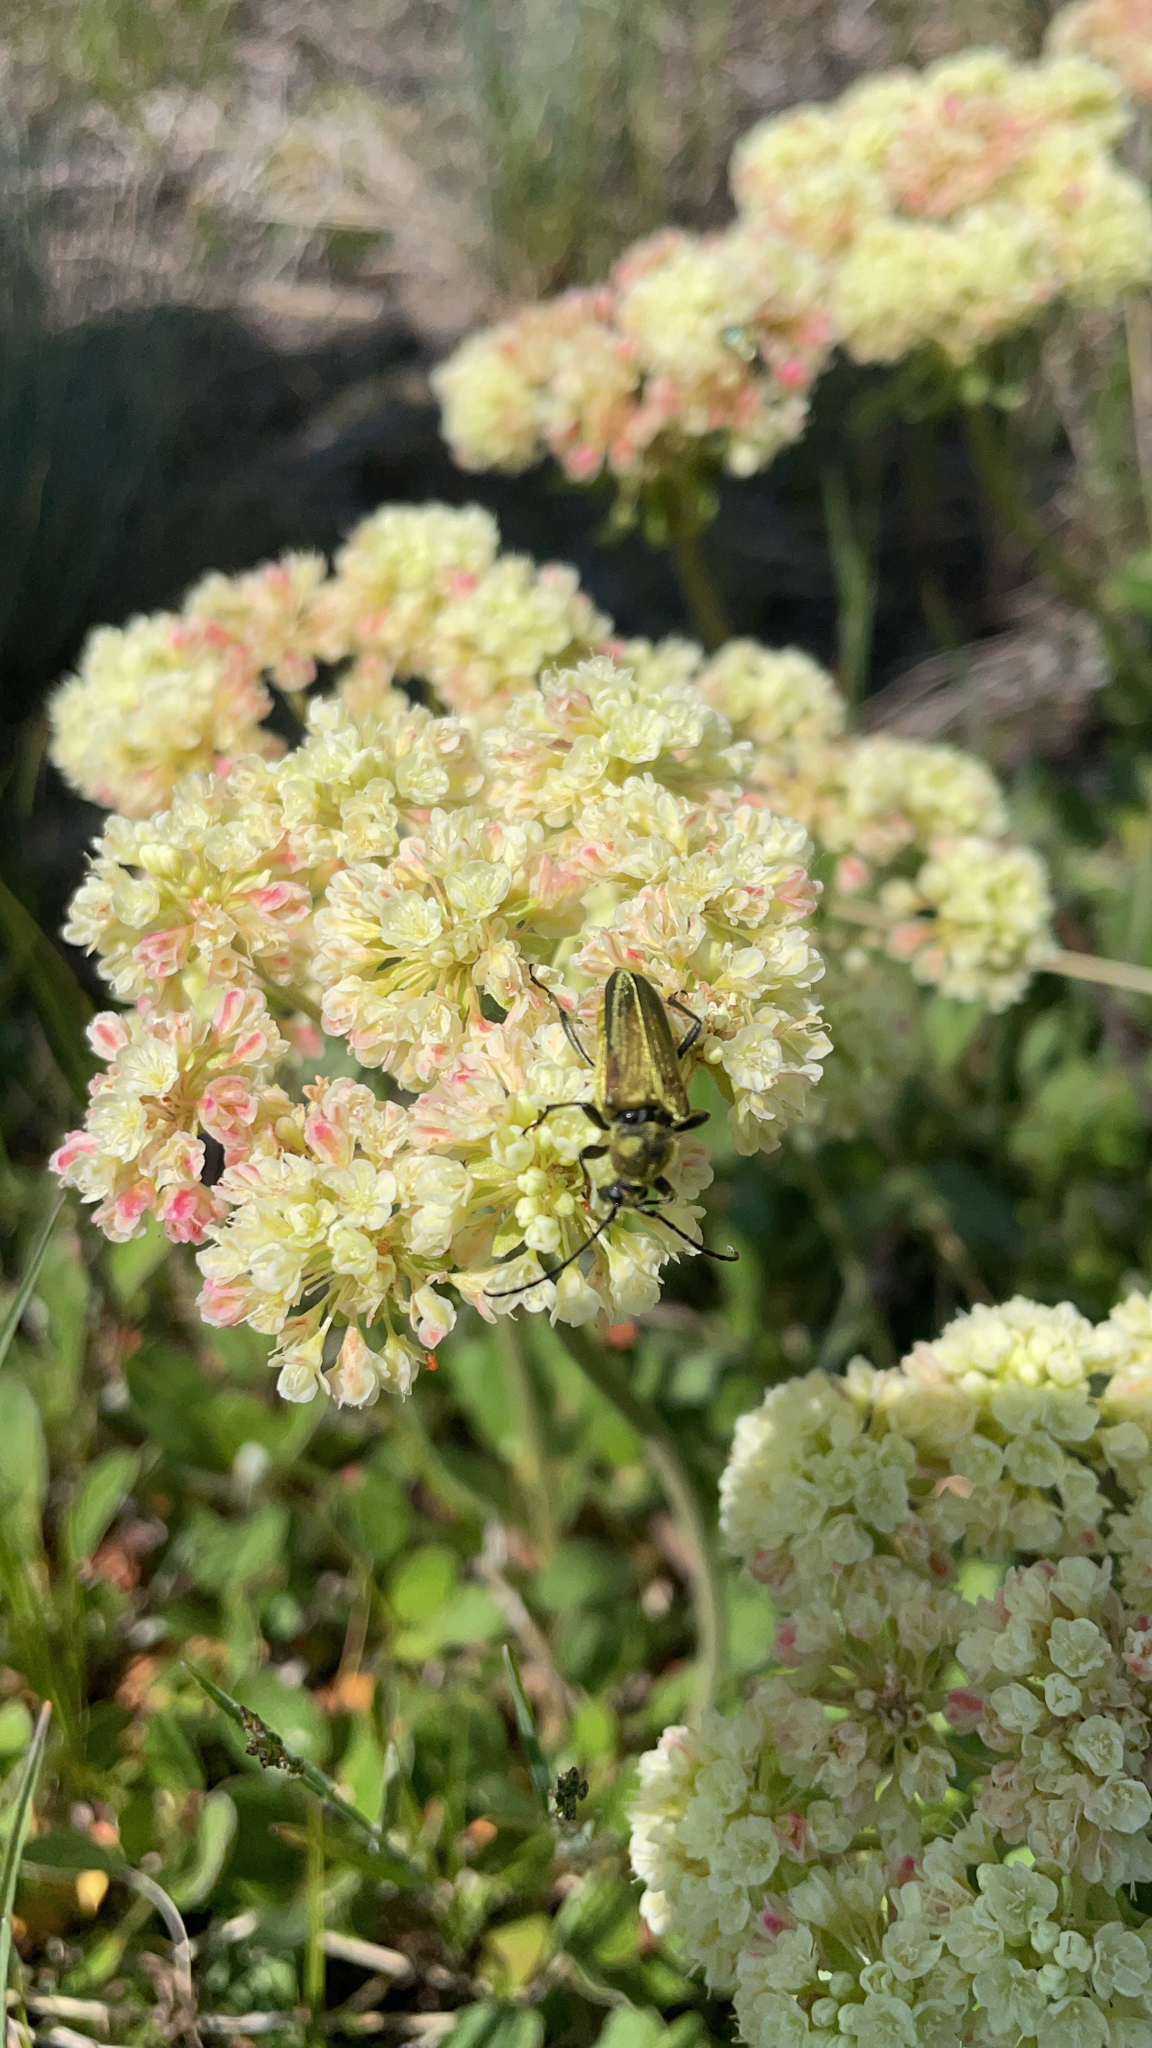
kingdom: Animalia
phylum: Arthropoda
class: Insecta
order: Coleoptera
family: Cerambycidae
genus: Cosmosalia
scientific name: Cosmosalia chrysocoma
